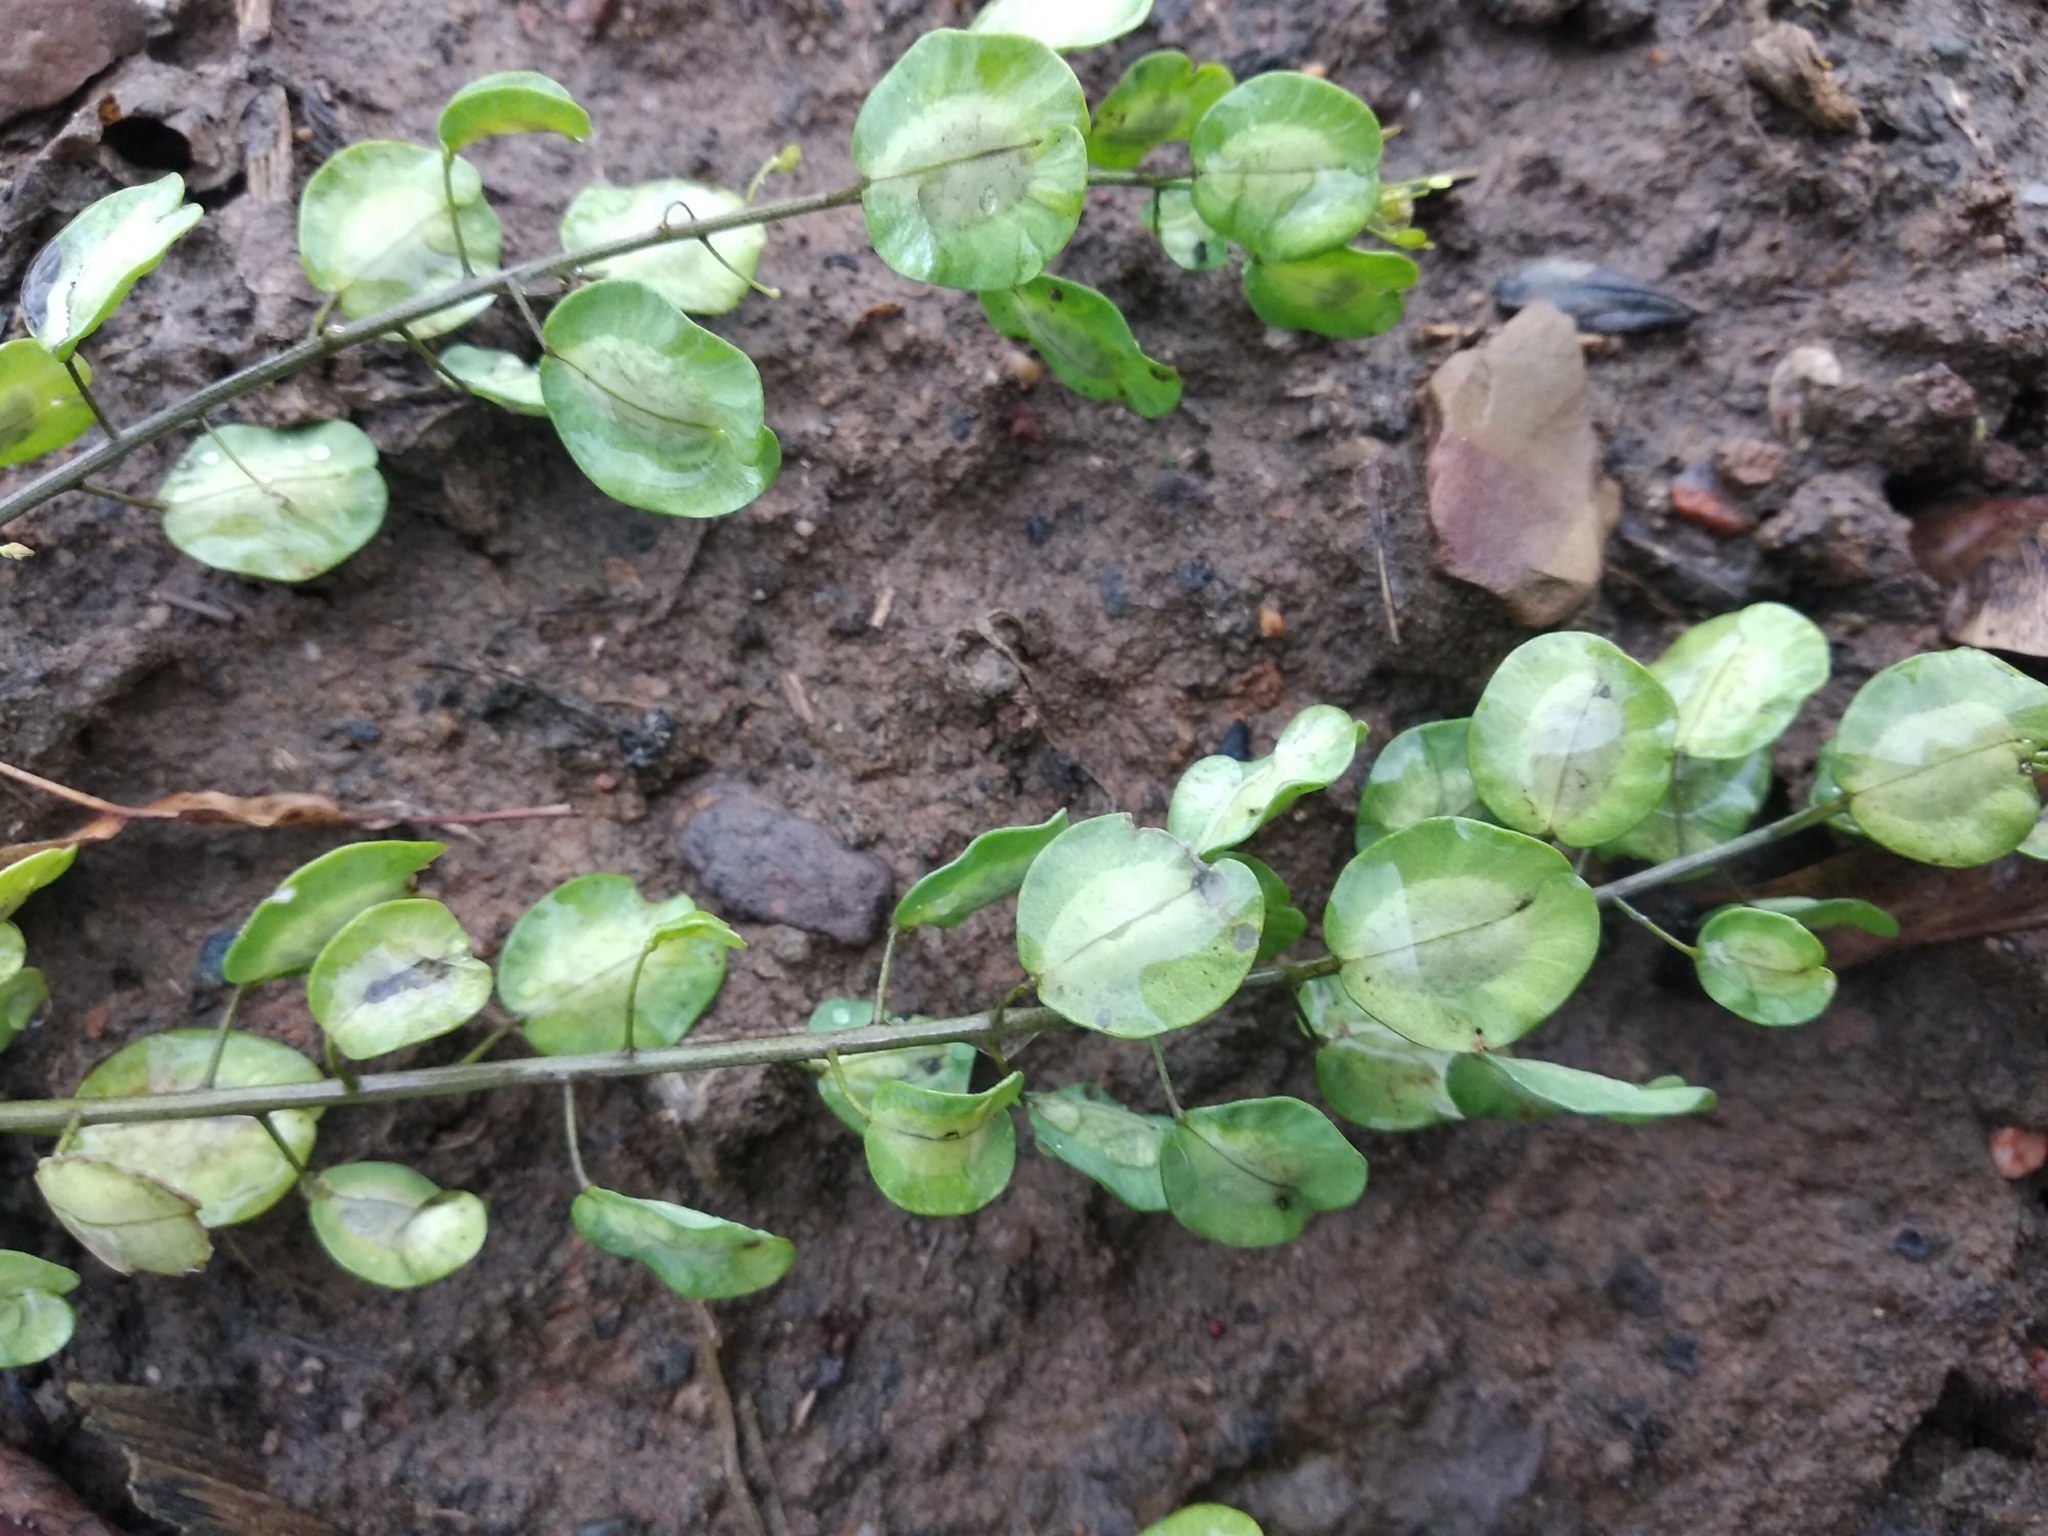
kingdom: Plantae
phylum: Tracheophyta
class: Magnoliopsida
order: Brassicales
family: Brassicaceae
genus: Thlaspi
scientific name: Thlaspi arvense
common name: Field pennycress
